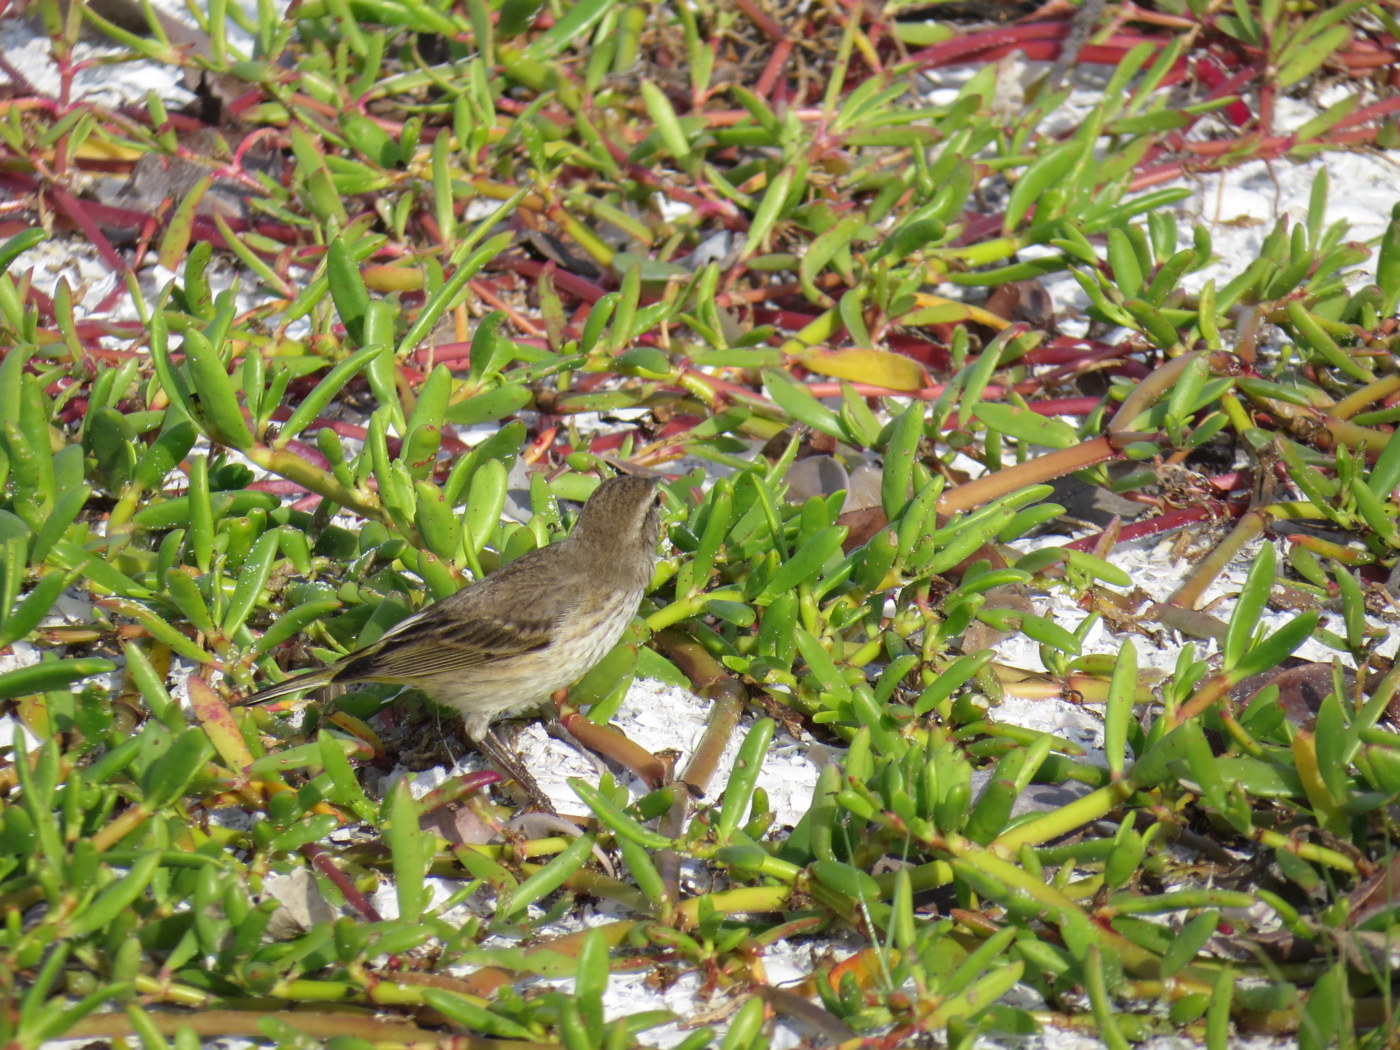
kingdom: Plantae
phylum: Tracheophyta
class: Magnoliopsida
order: Caryophyllales
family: Aizoaceae
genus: Sesuvium
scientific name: Sesuvium portulacastrum
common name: Sea-purslane
